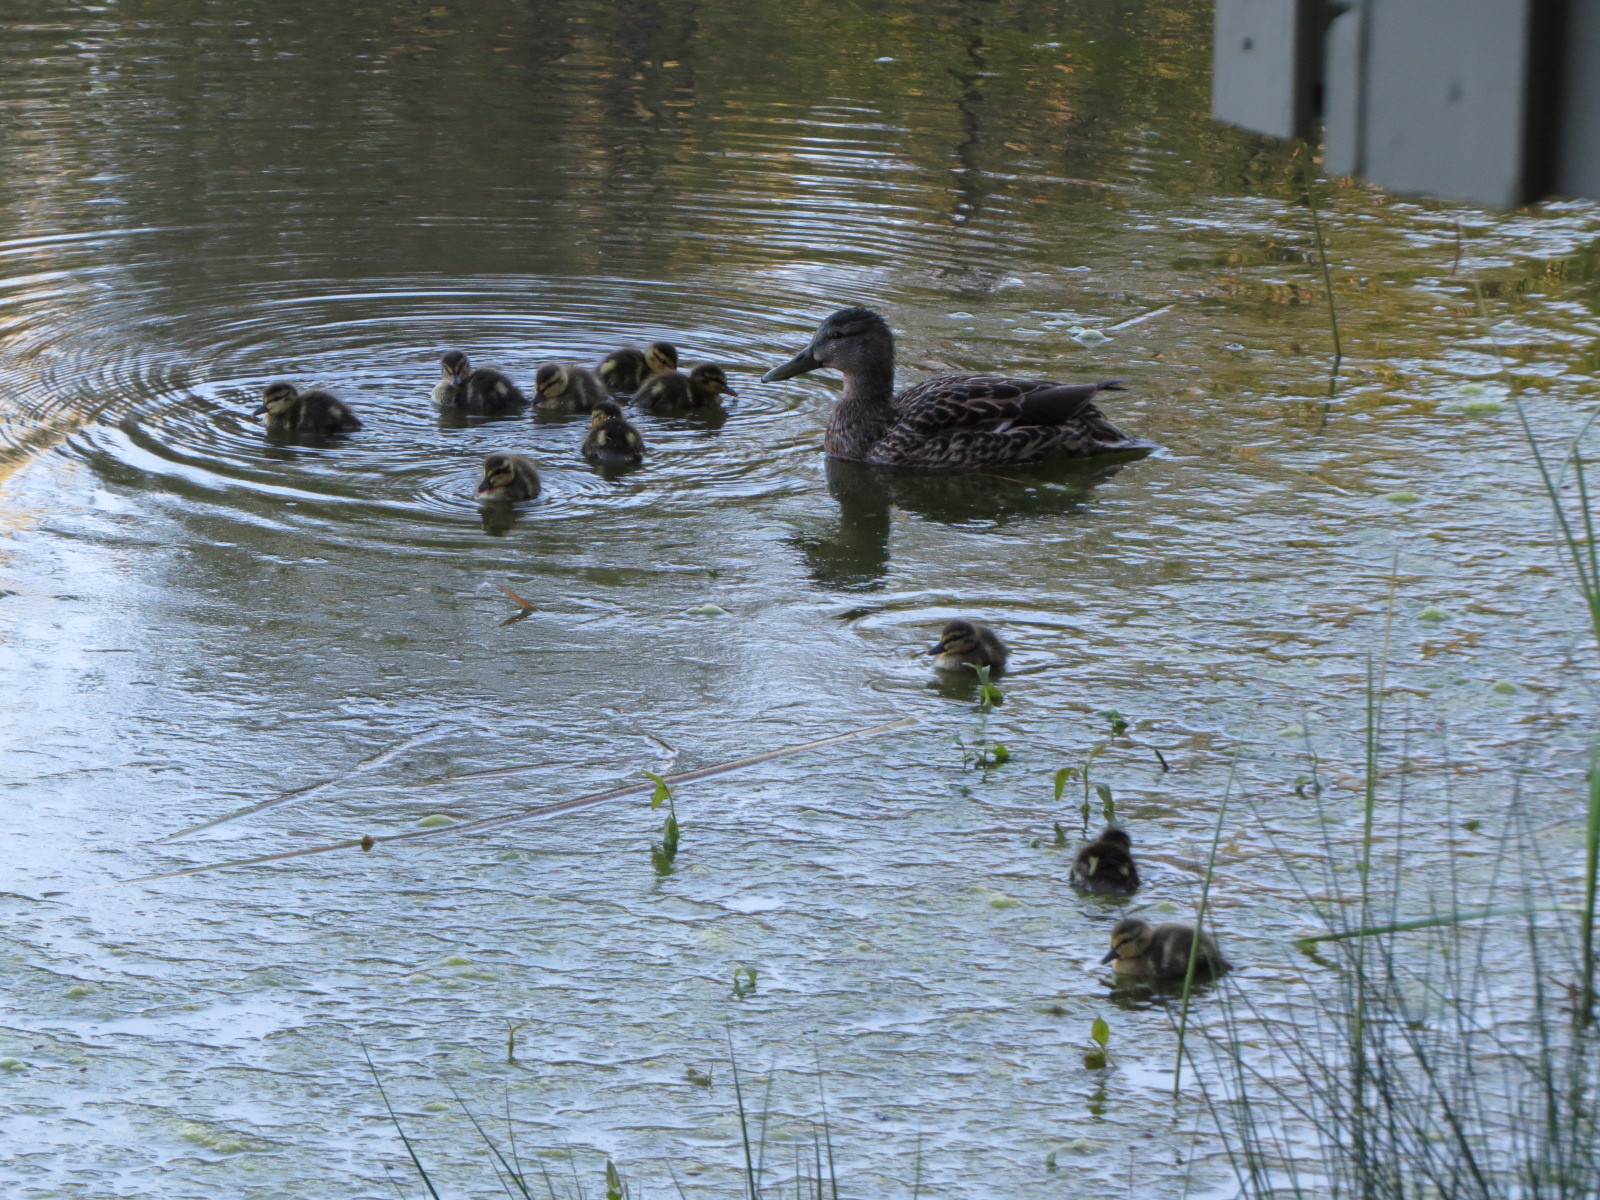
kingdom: Animalia
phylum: Chordata
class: Aves
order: Anseriformes
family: Anatidae
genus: Anas
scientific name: Anas platyrhynchos
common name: Mallard
